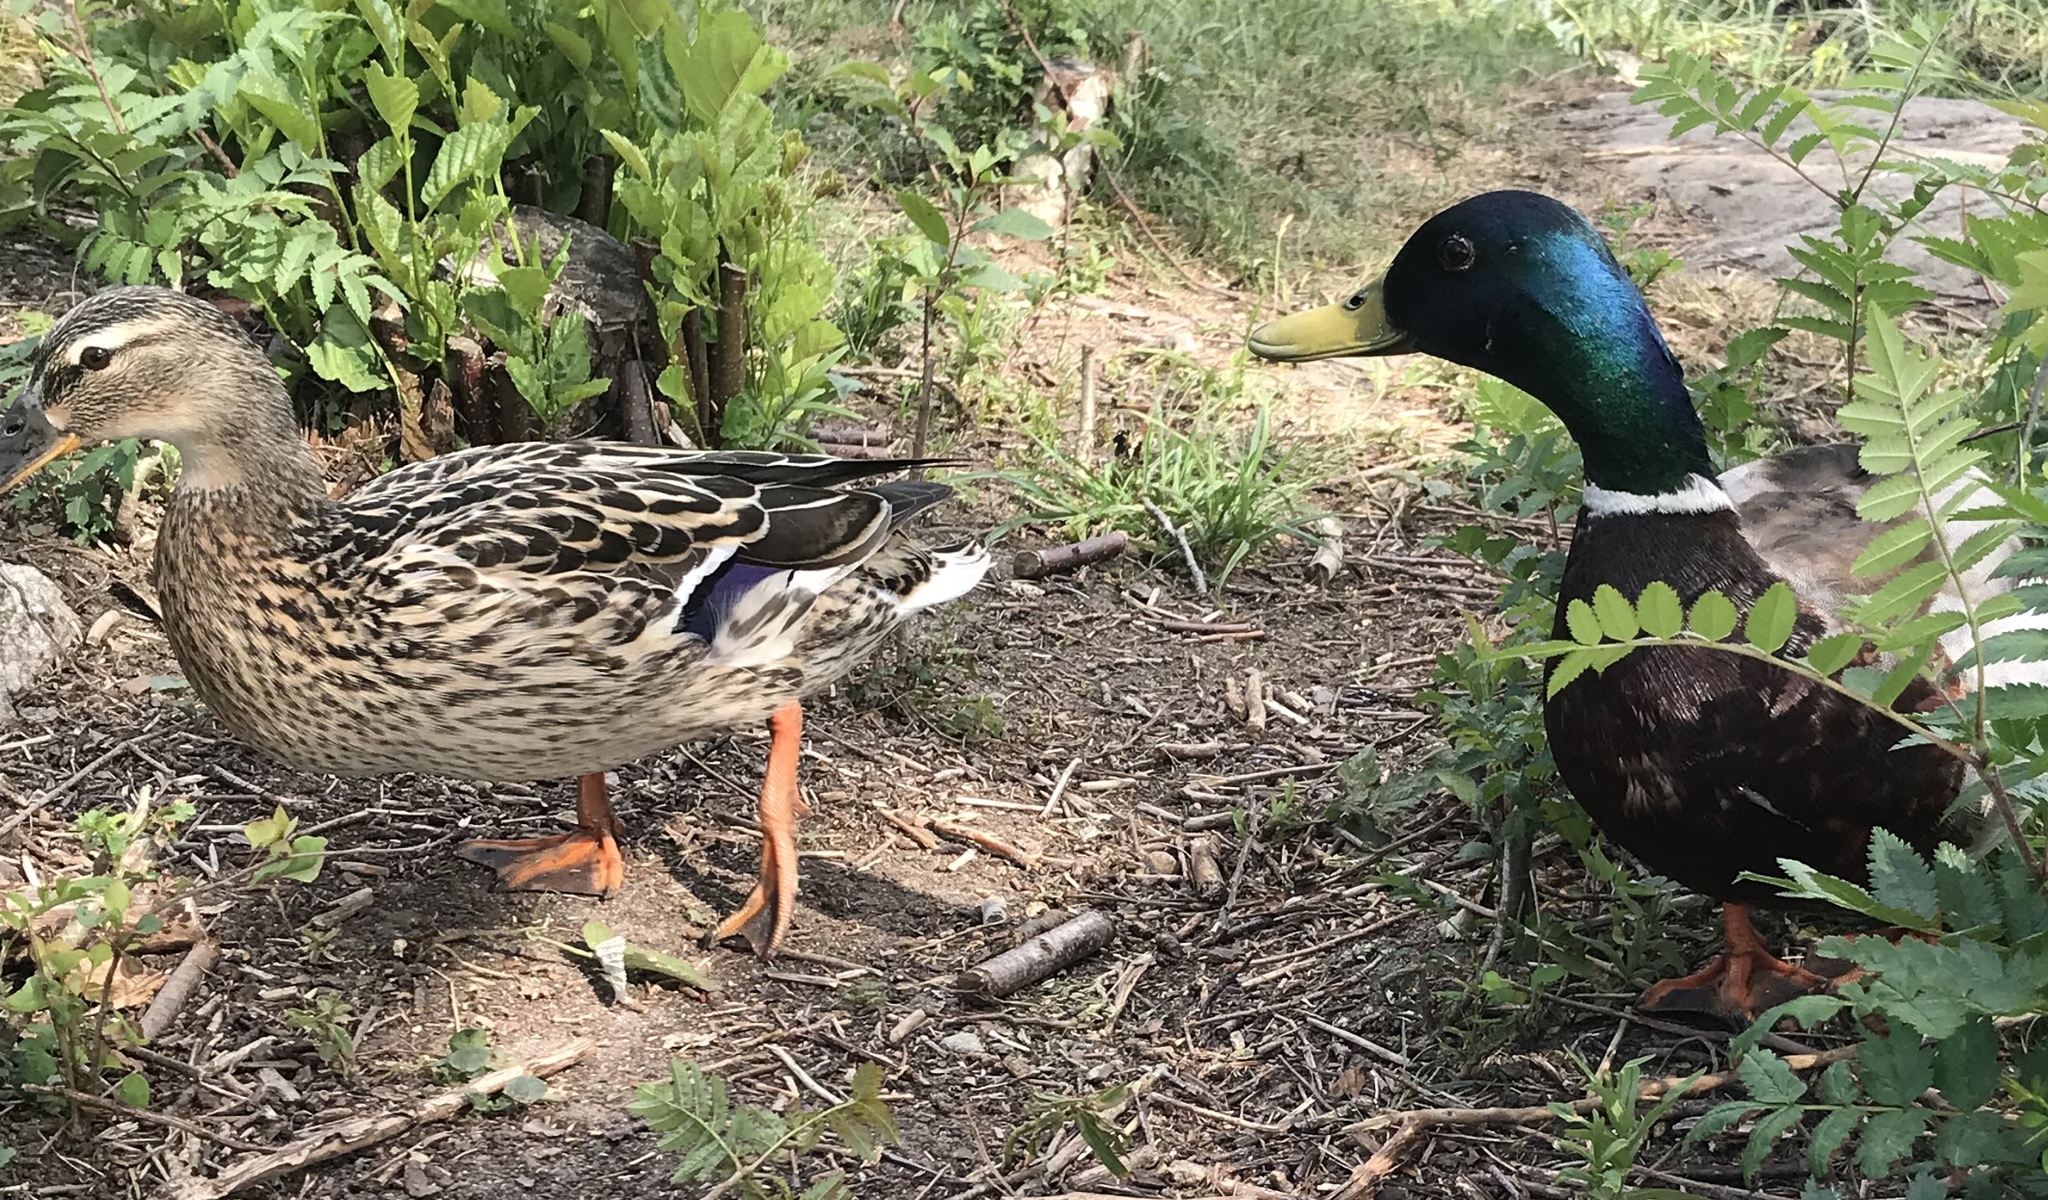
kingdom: Animalia
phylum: Chordata
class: Aves
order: Anseriformes
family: Anatidae
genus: Anas
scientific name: Anas platyrhynchos
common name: Mallard
